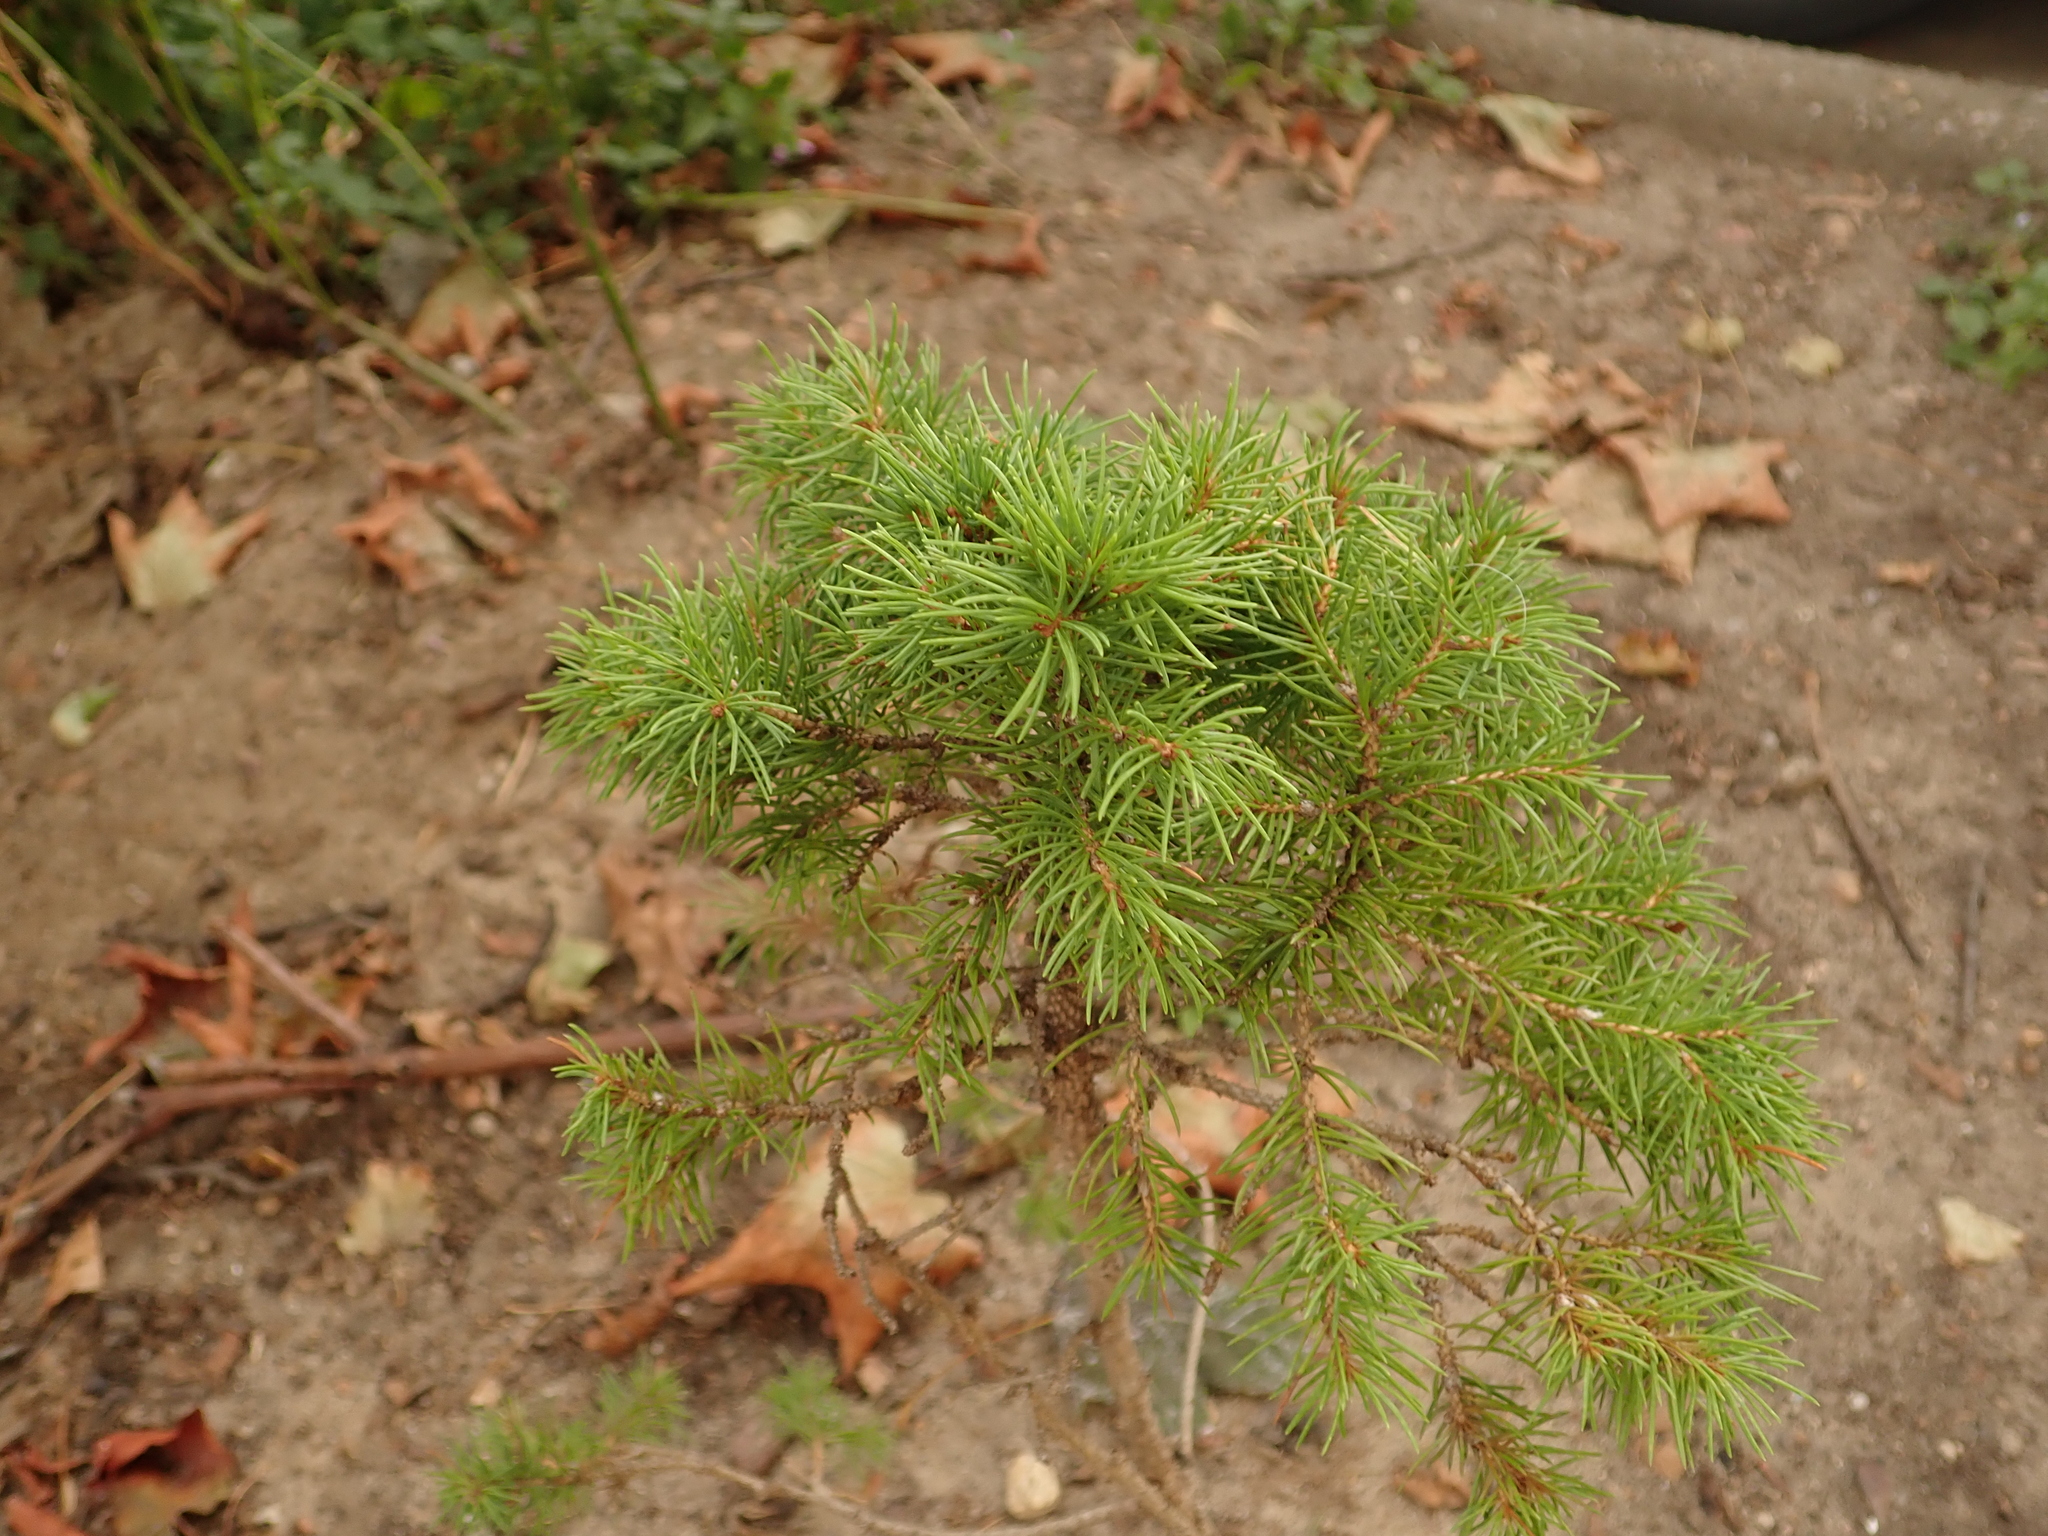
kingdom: Plantae
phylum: Tracheophyta
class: Pinopsida
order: Pinales
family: Pinaceae
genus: Picea
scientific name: Picea abies
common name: Norway spruce
